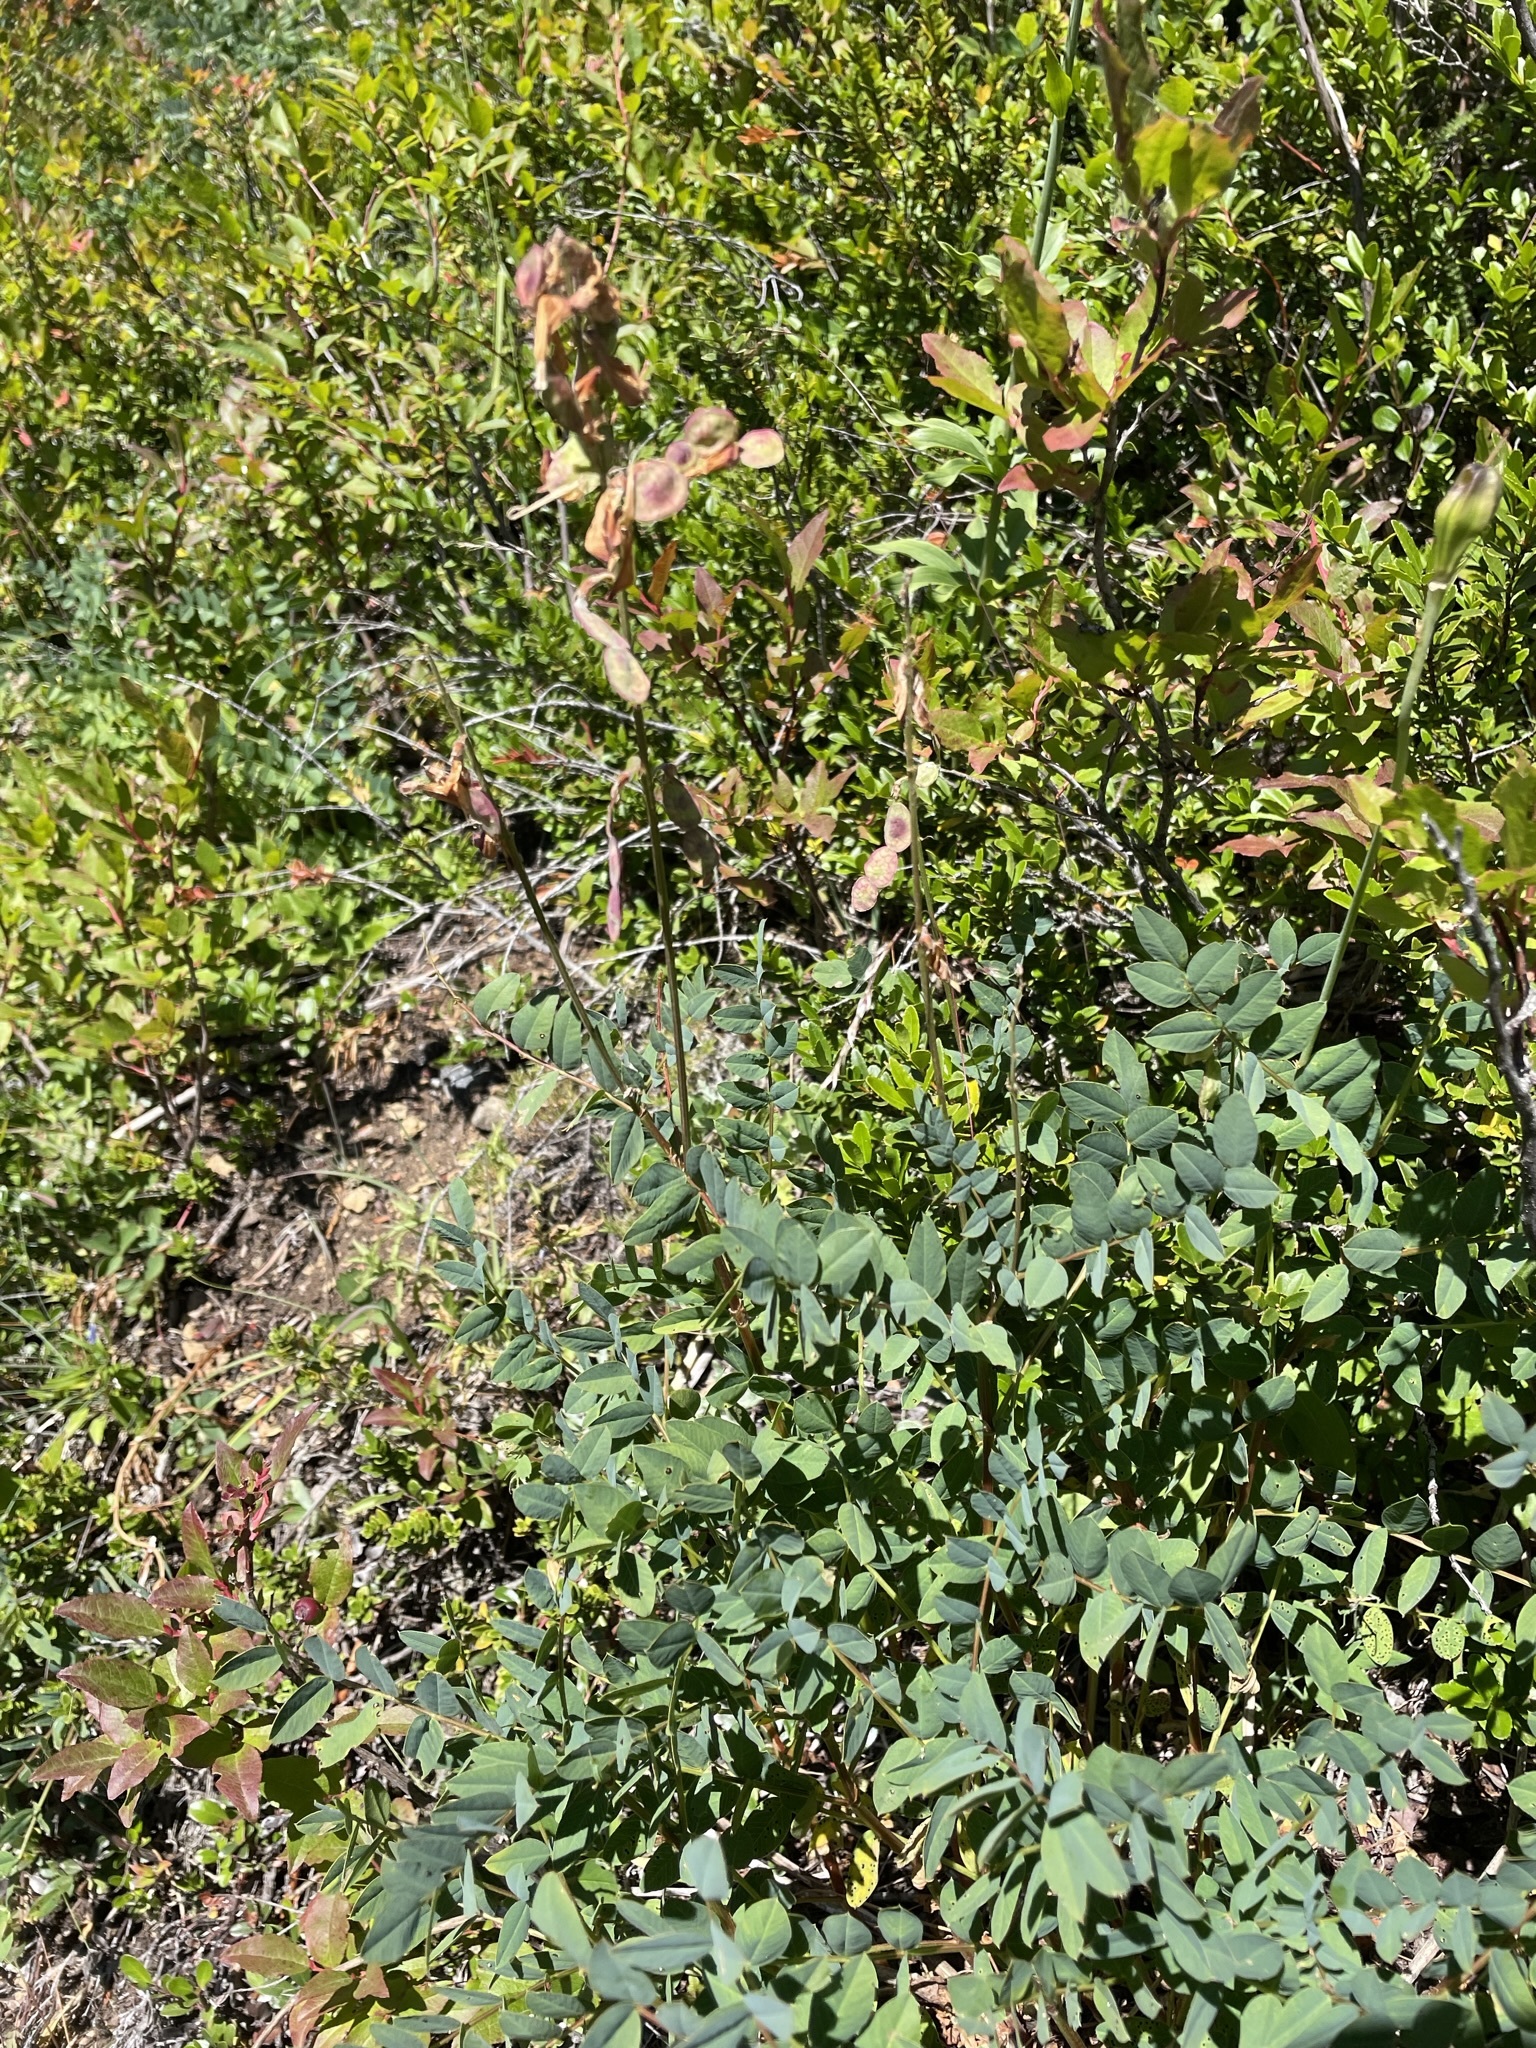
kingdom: Plantae
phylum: Tracheophyta
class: Magnoliopsida
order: Fabales
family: Fabaceae
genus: Hedysarum
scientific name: Hedysarum occidentale
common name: Western hedysarum
